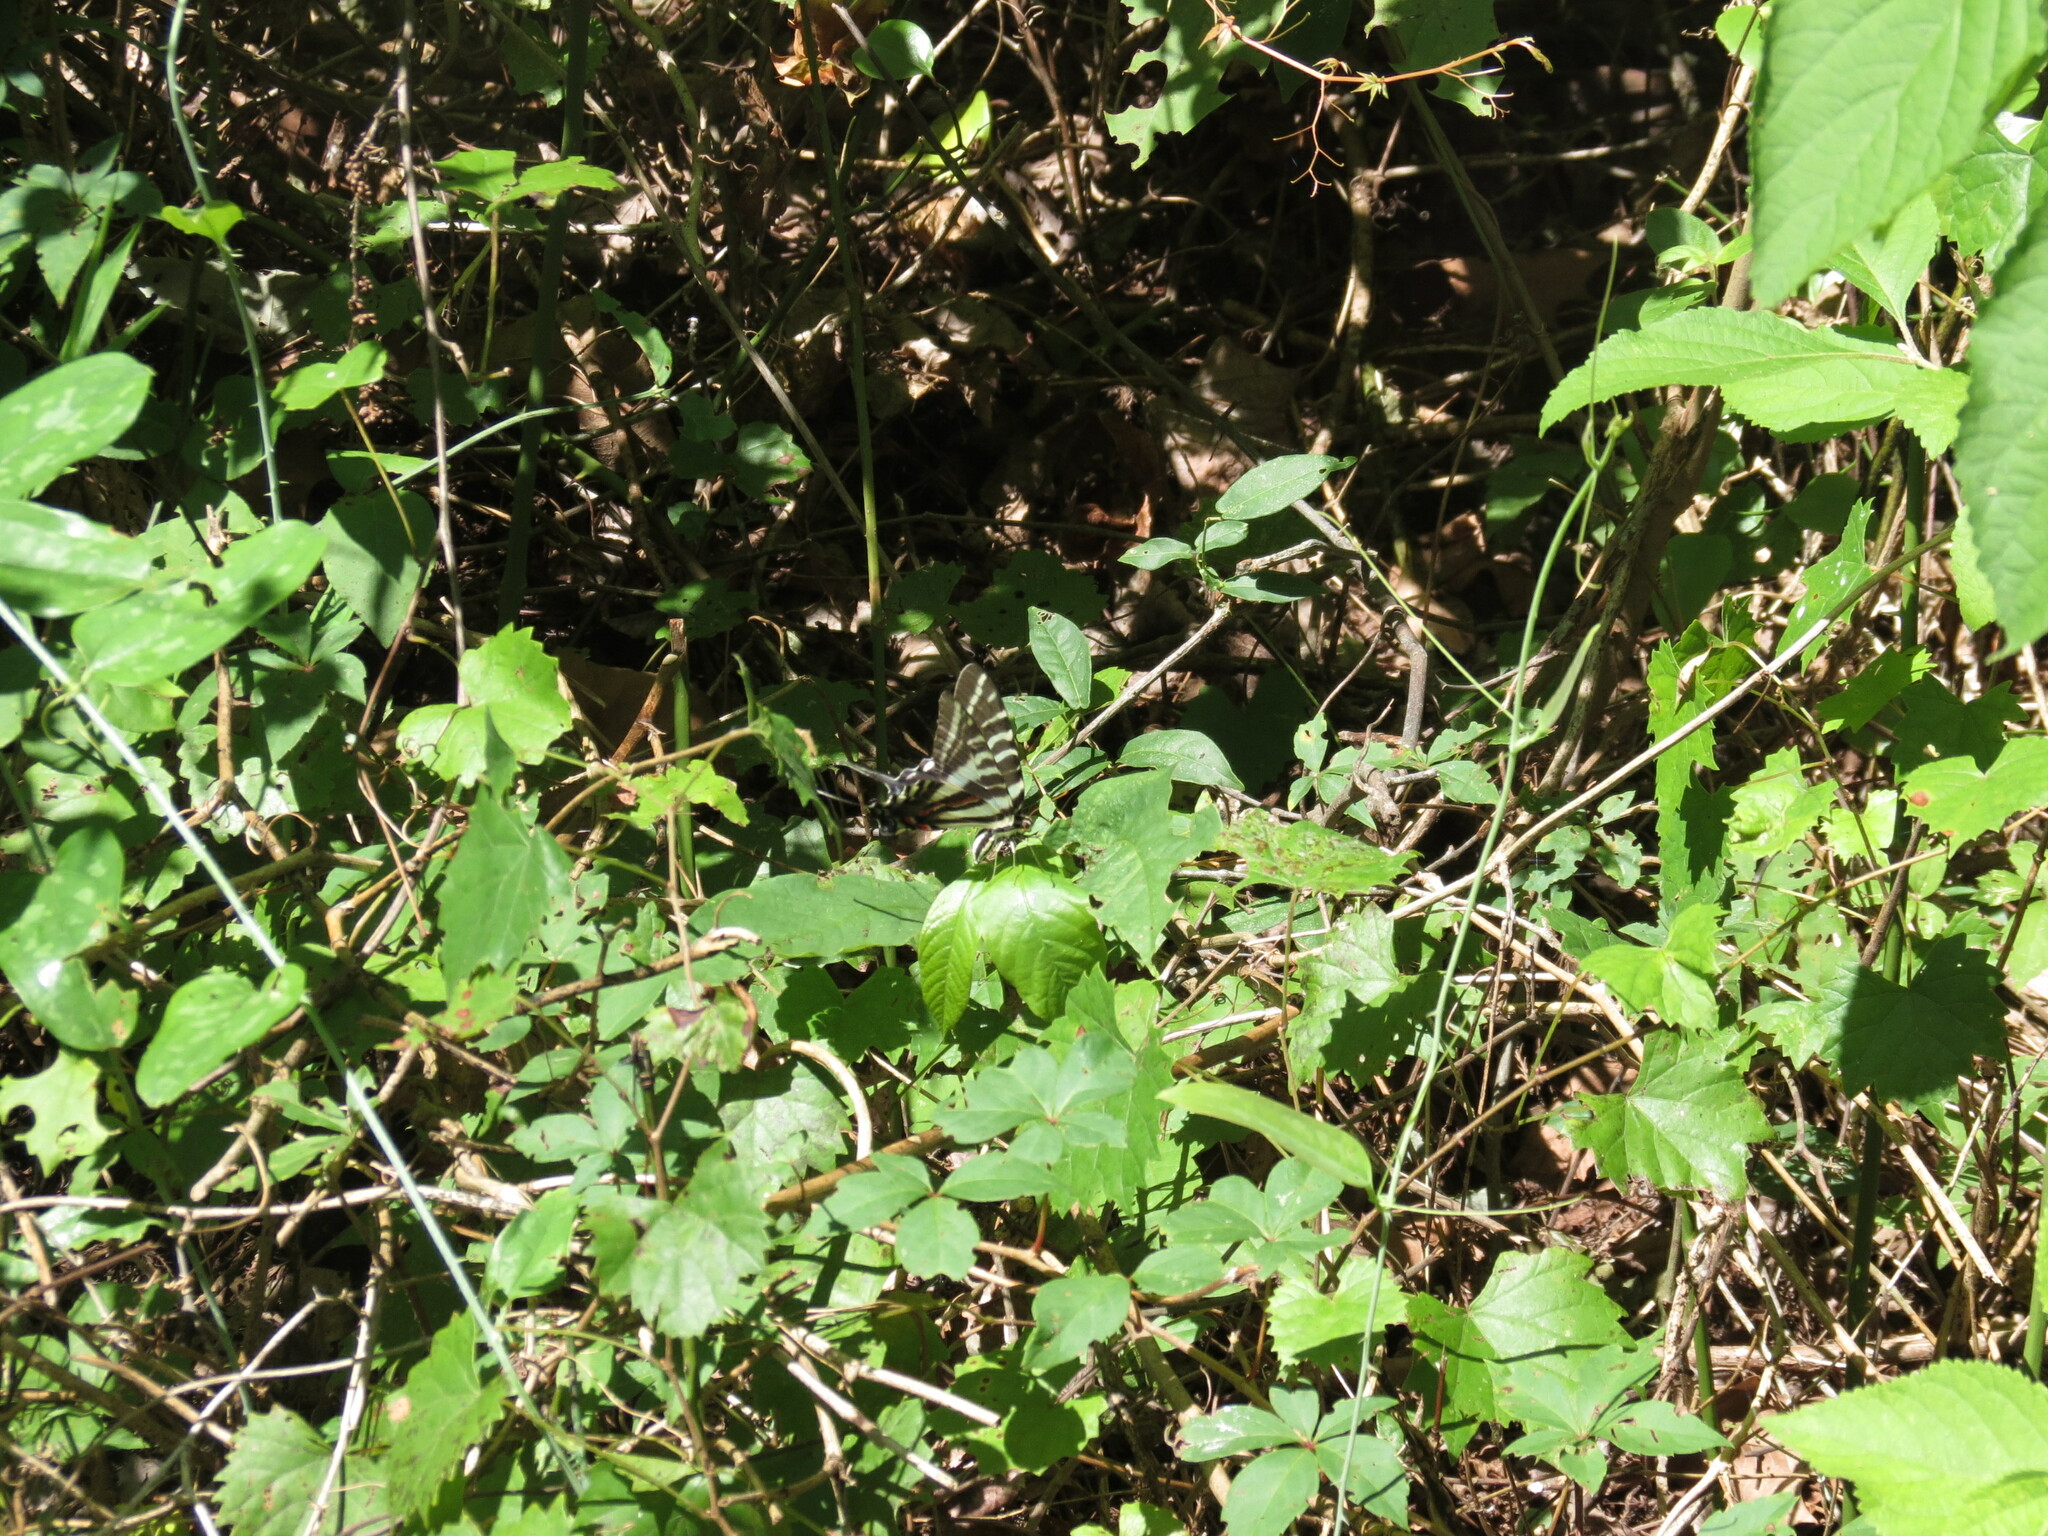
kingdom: Animalia
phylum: Arthropoda
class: Insecta
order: Lepidoptera
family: Papilionidae
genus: Protographium
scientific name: Protographium marcellus
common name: Zebra swallowtail
